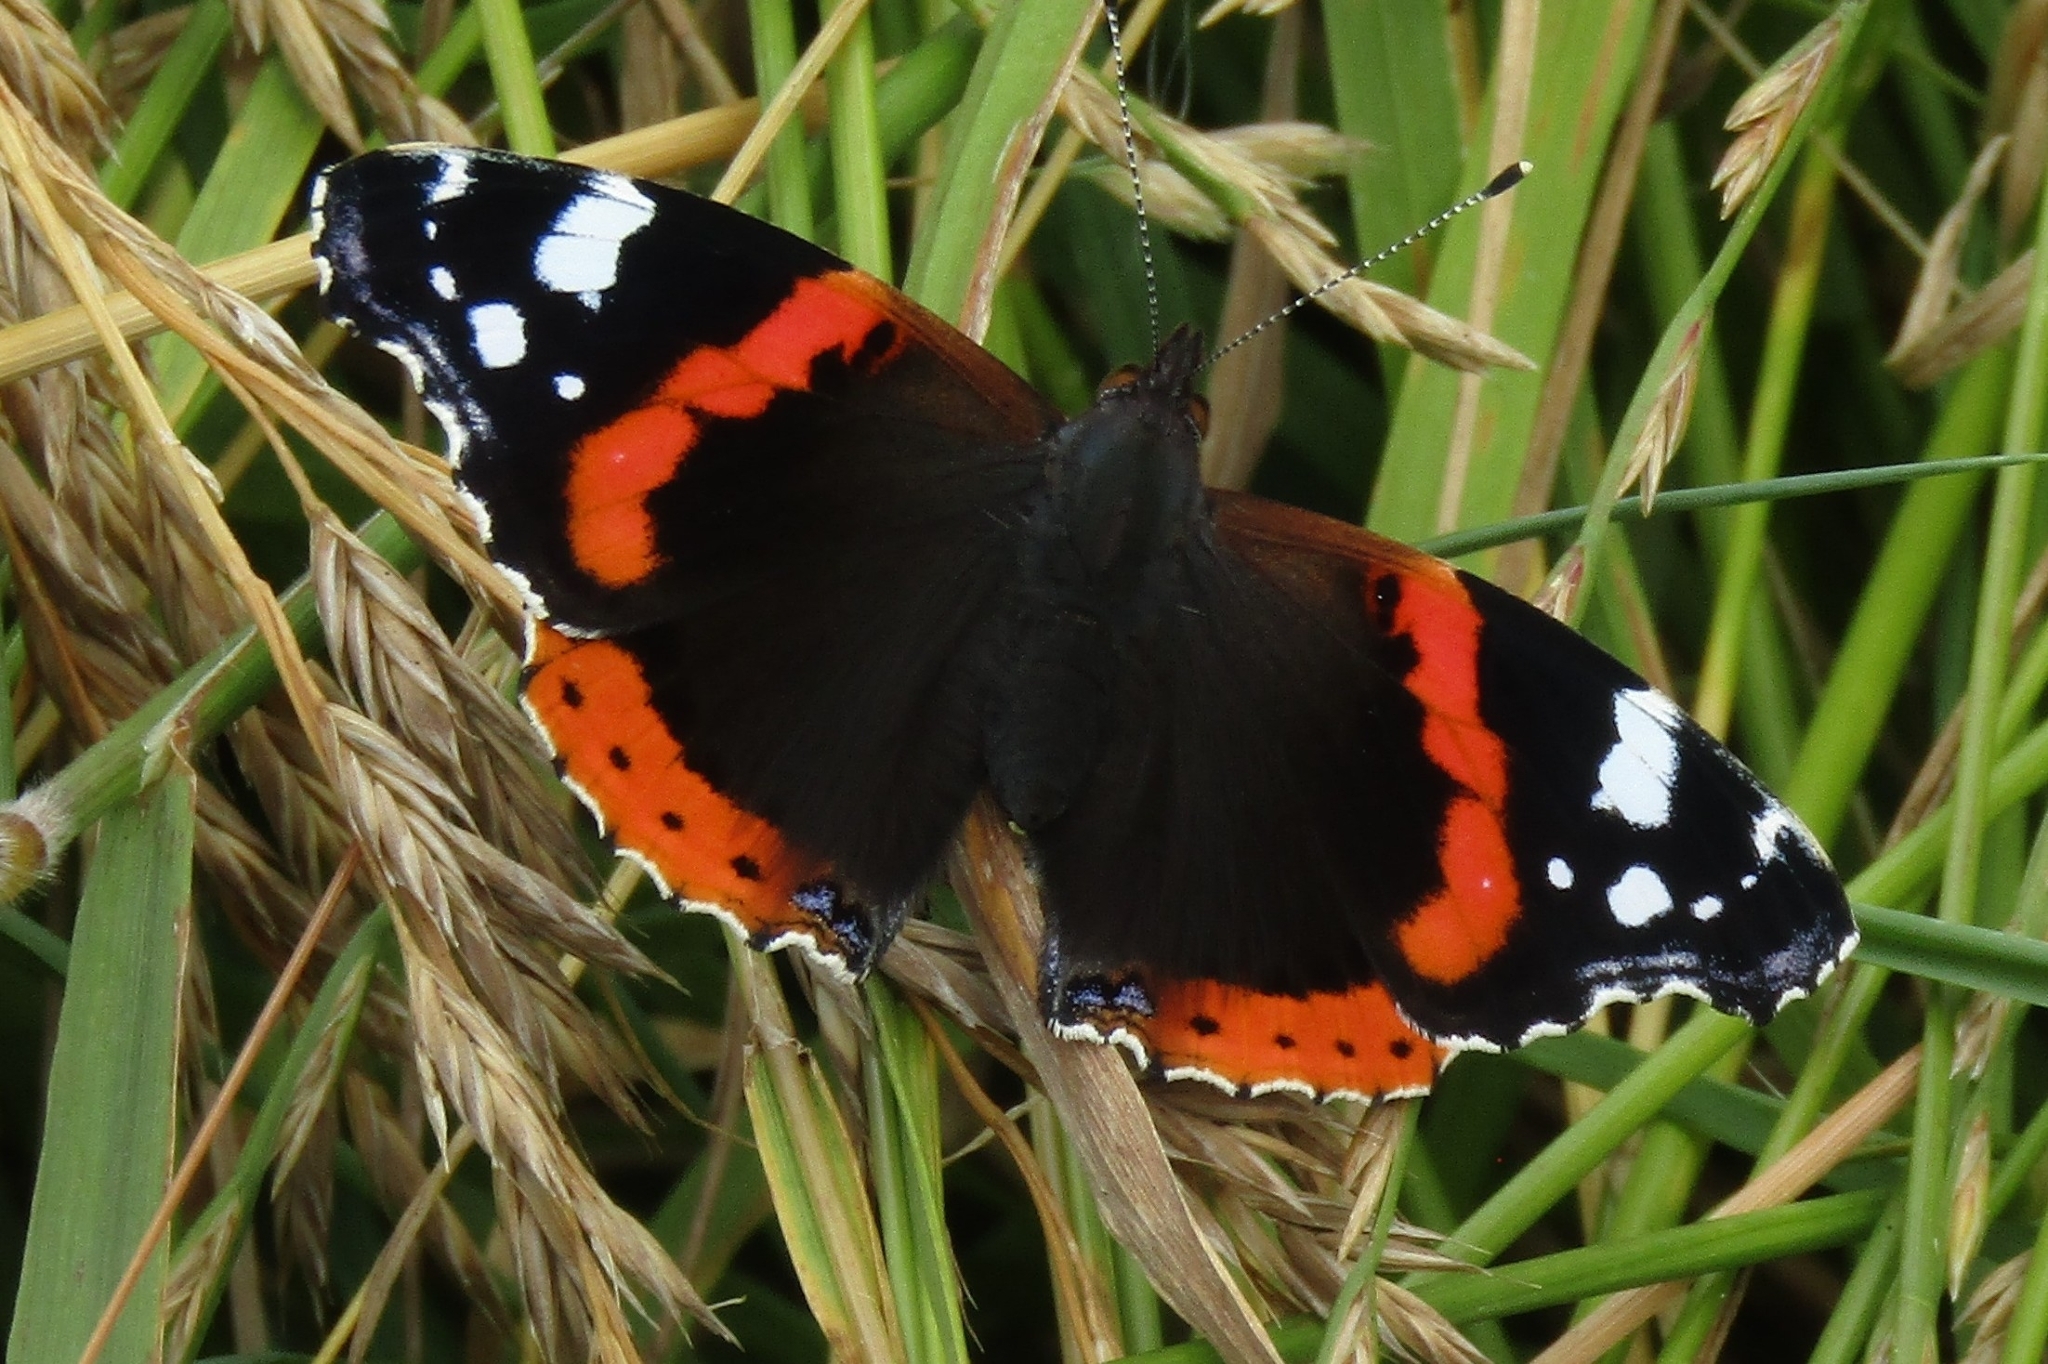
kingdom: Animalia
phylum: Arthropoda
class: Insecta
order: Lepidoptera
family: Nymphalidae
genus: Vanessa
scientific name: Vanessa atalanta
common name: Red admiral
